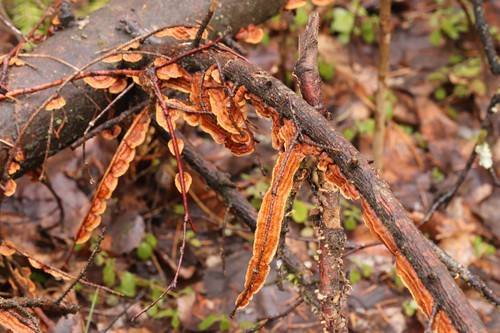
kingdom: Fungi
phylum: Basidiomycota
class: Agaricomycetes
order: Hymenochaetales
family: Hymenochaetaceae
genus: Hydnoporia
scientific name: Hydnoporia tabacina
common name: Willow glue
